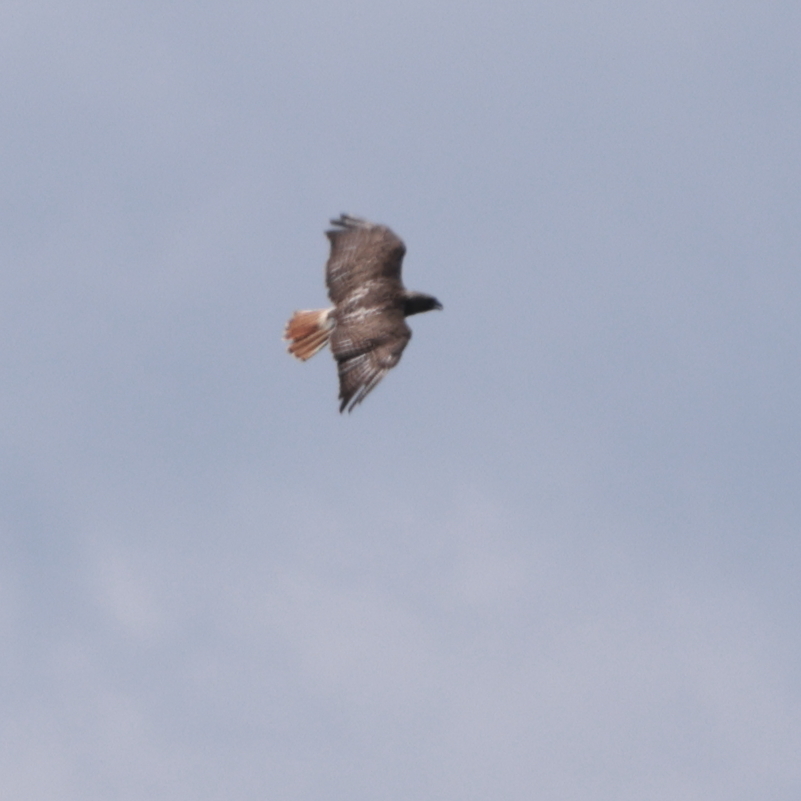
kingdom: Animalia
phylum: Chordata
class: Aves
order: Accipitriformes
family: Accipitridae
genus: Buteo
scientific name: Buteo jamaicensis
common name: Red-tailed hawk
